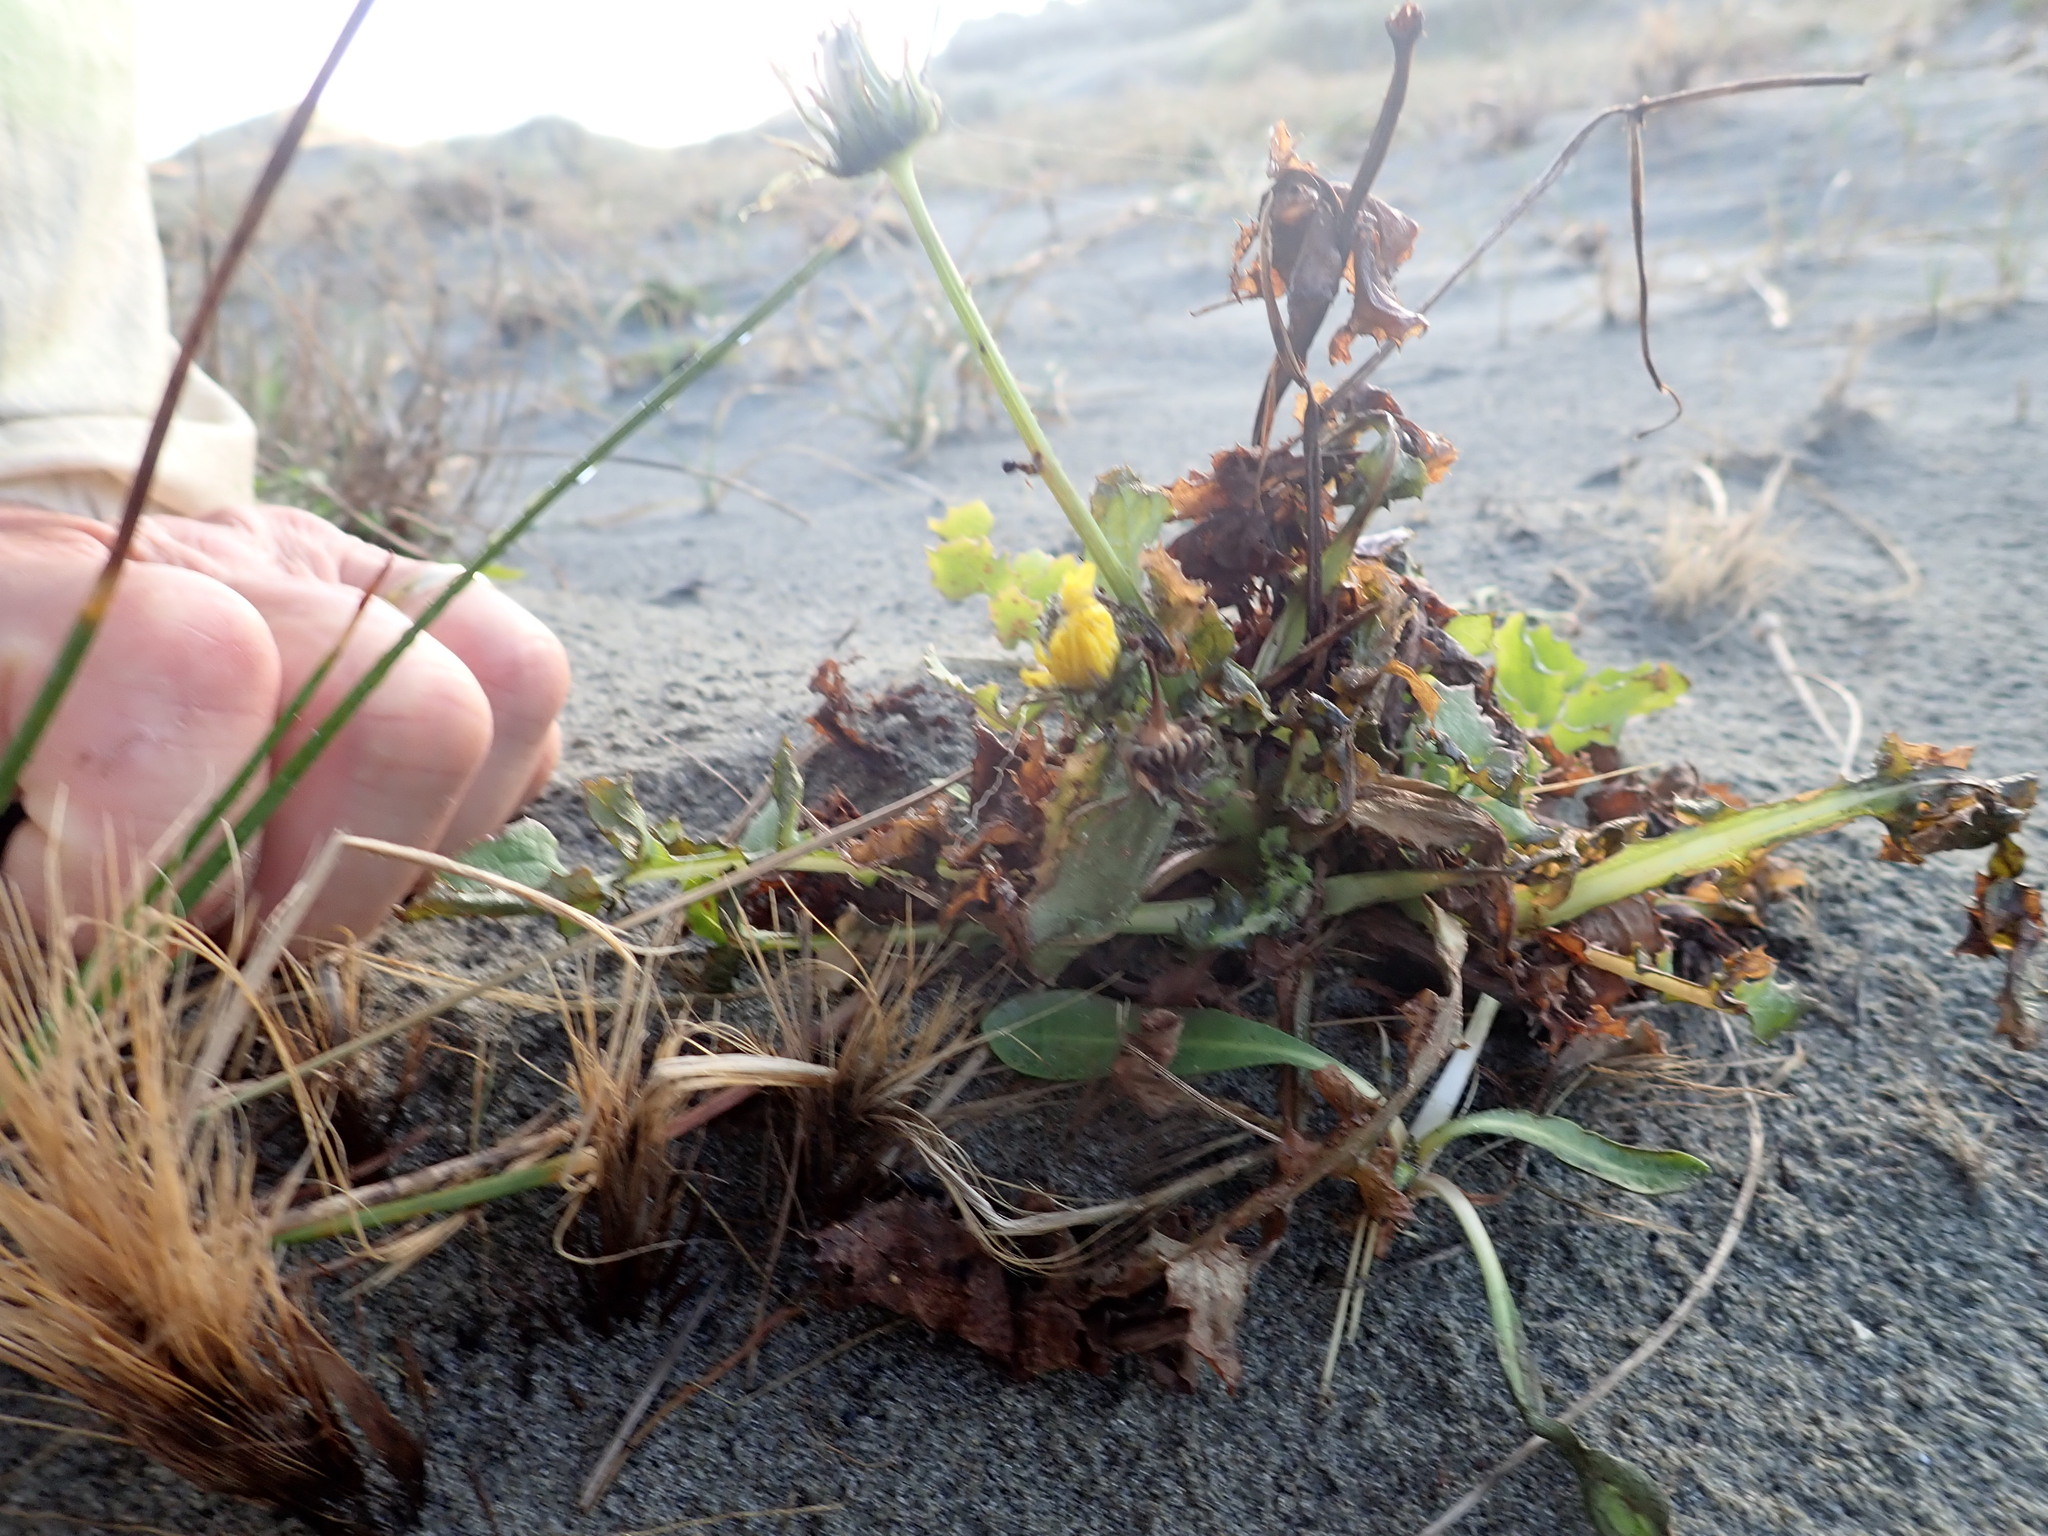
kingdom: Plantae
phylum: Tracheophyta
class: Magnoliopsida
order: Asterales
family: Asteraceae
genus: Sonchus
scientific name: Sonchus oleraceus
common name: Common sowthistle
